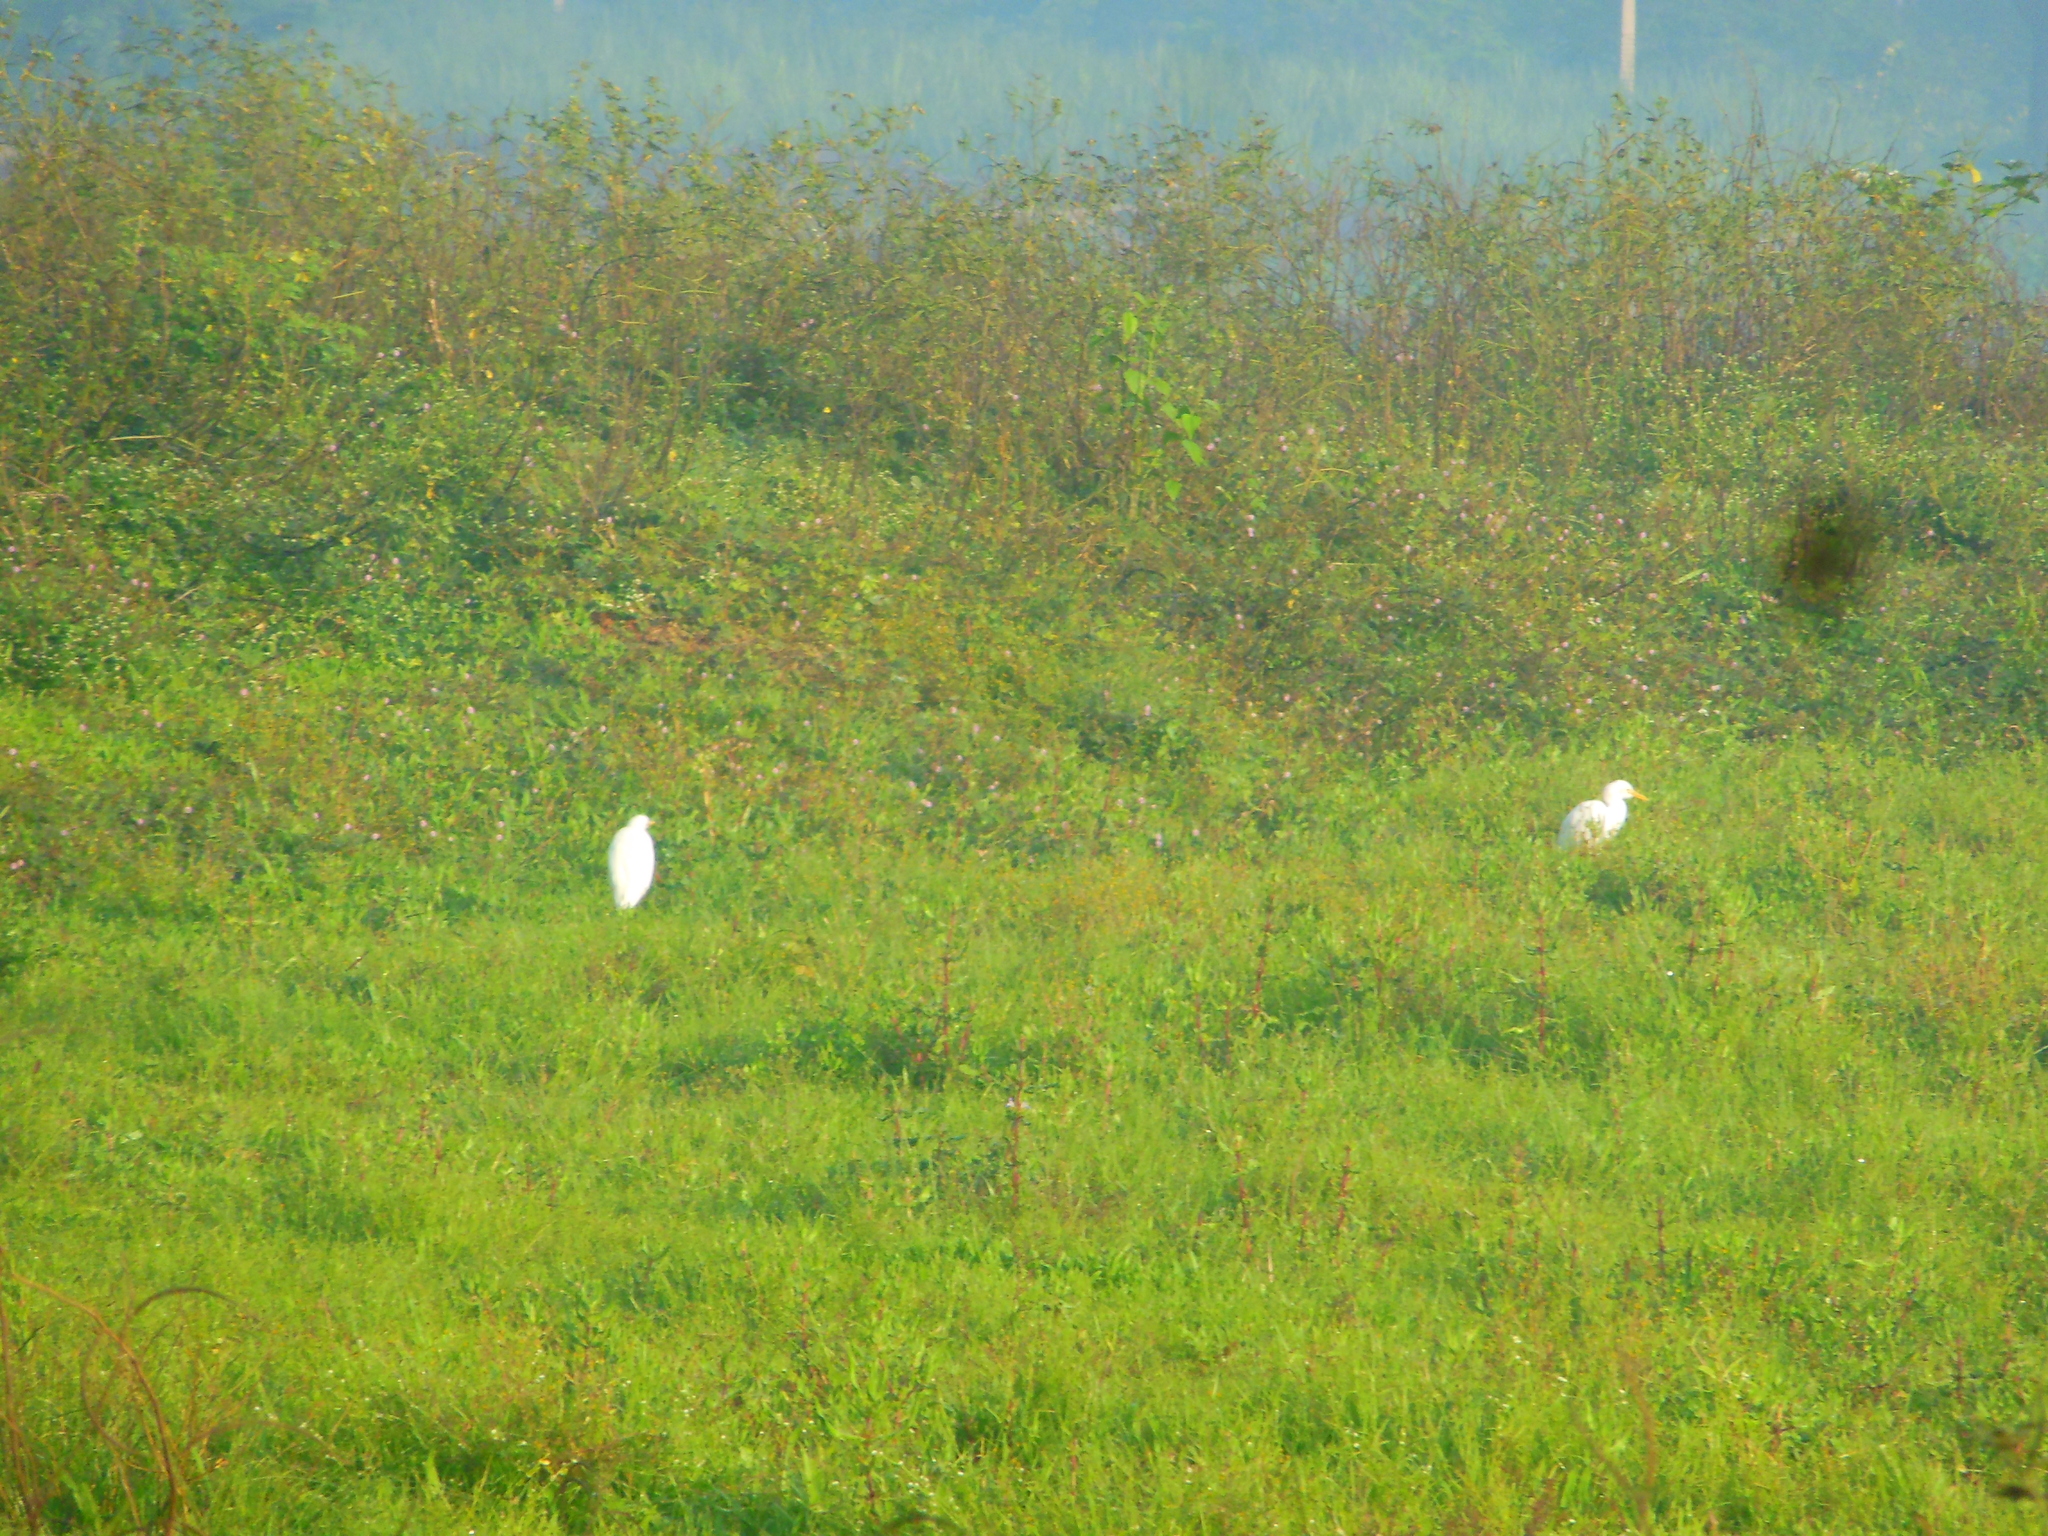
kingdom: Animalia
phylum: Chordata
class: Aves
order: Pelecaniformes
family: Ardeidae
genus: Bubulcus
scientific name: Bubulcus coromandus
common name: Eastern cattle egret
